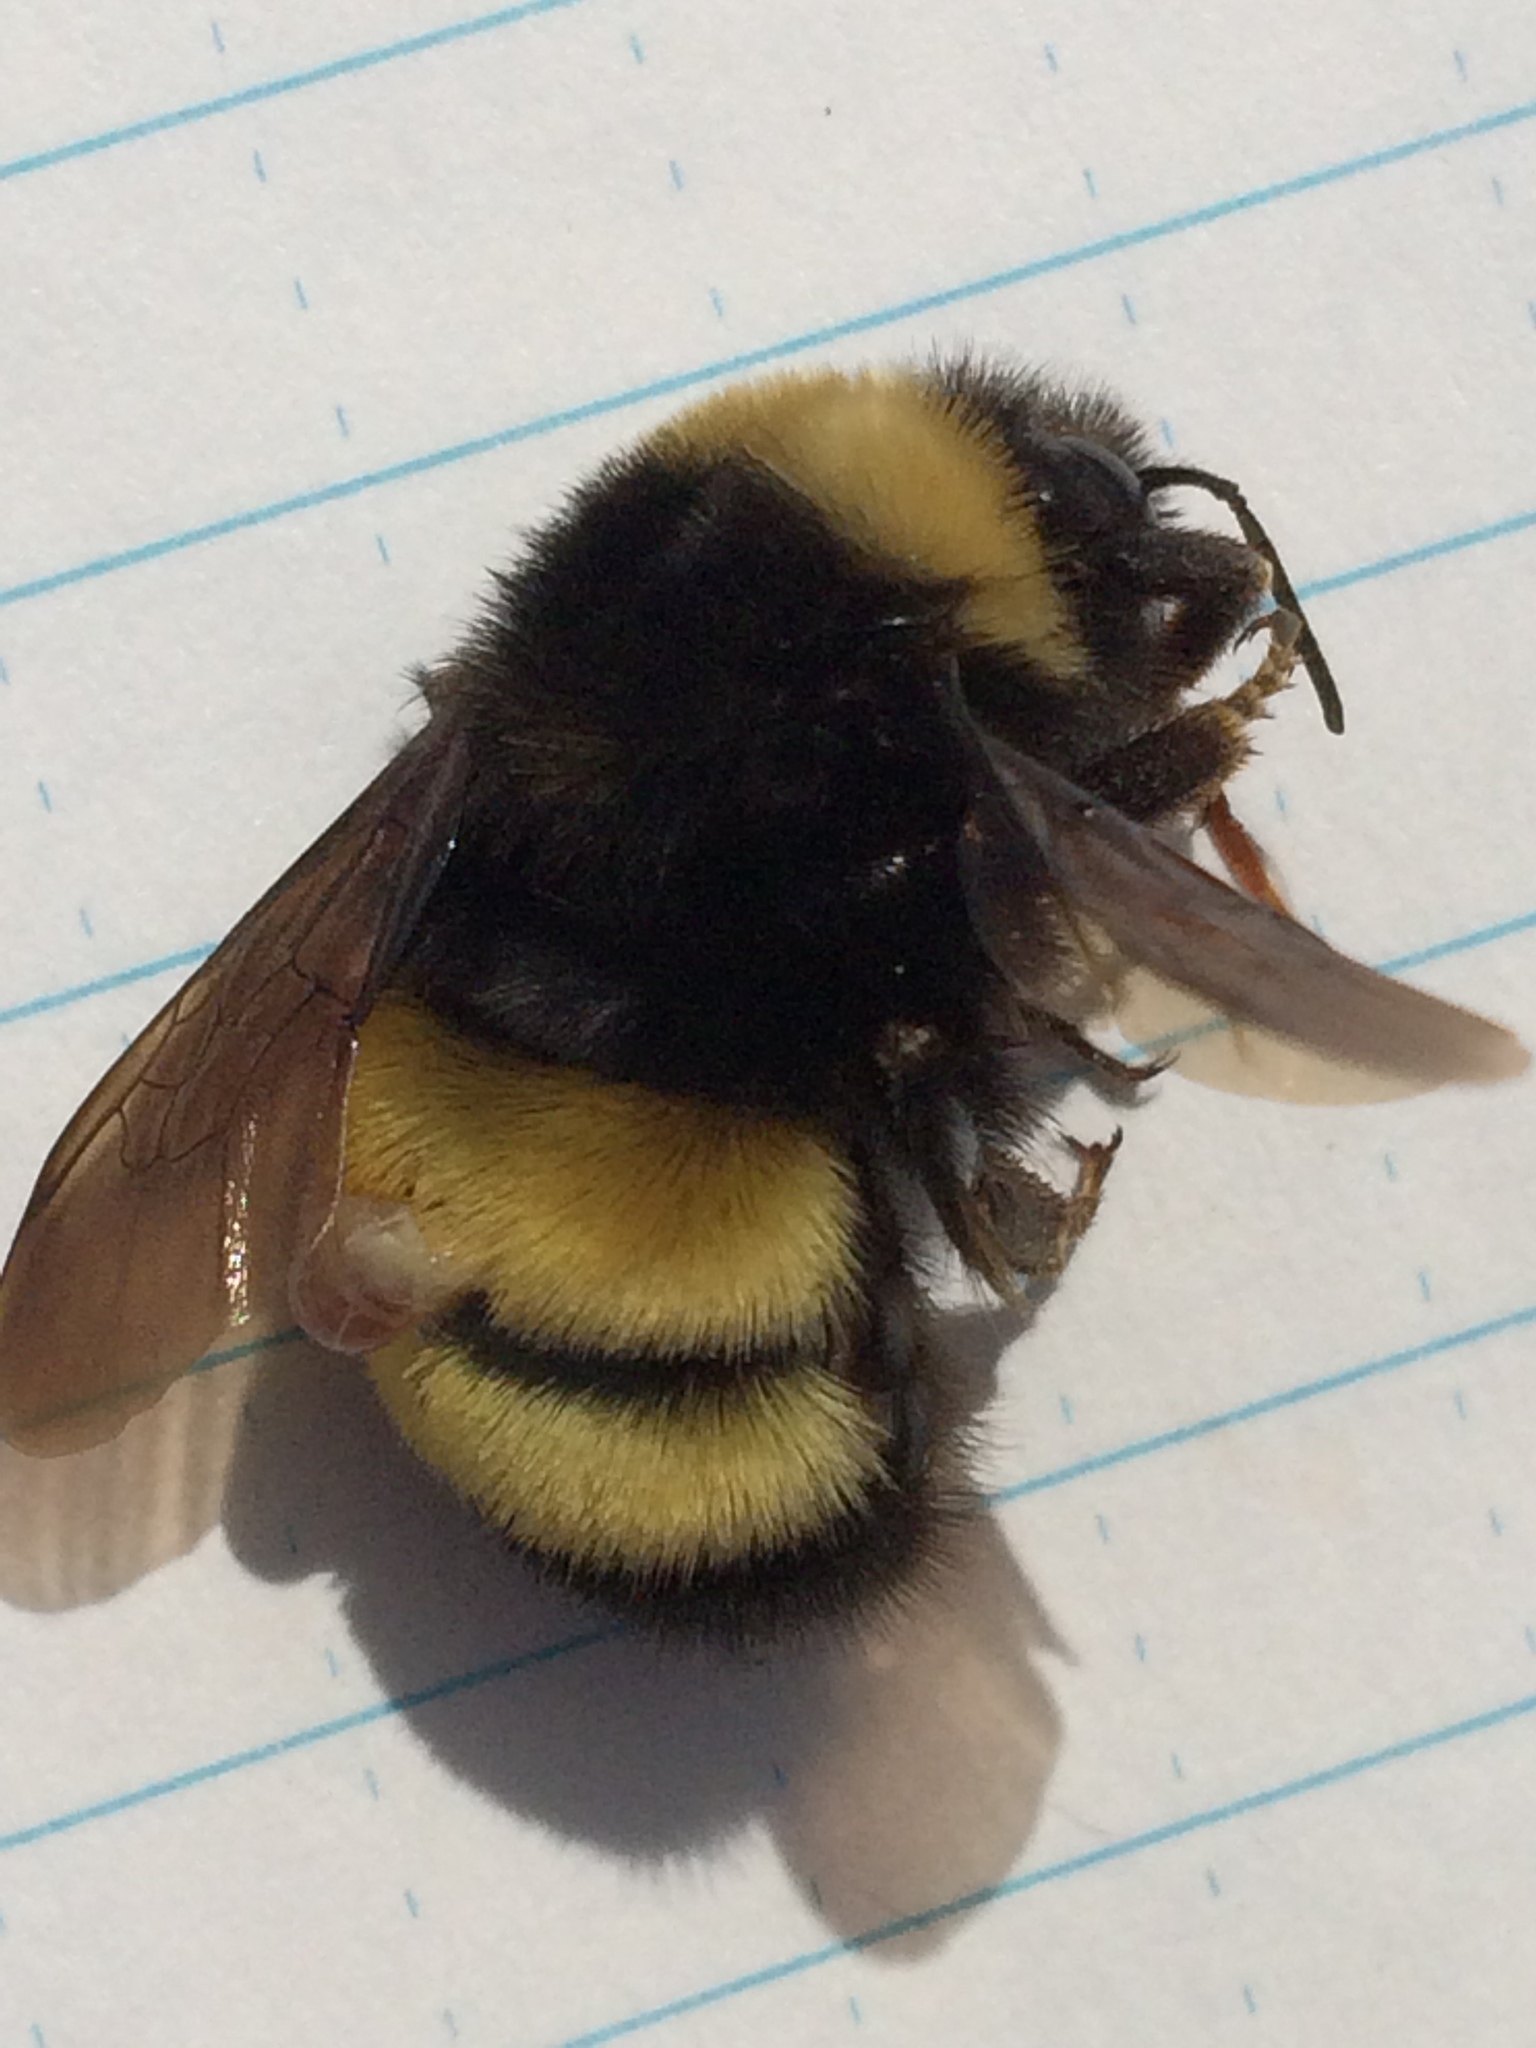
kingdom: Animalia
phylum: Arthropoda
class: Insecta
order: Hymenoptera
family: Apidae
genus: Bombus
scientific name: Bombus terricola
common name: Yellow-banded bumble bee
